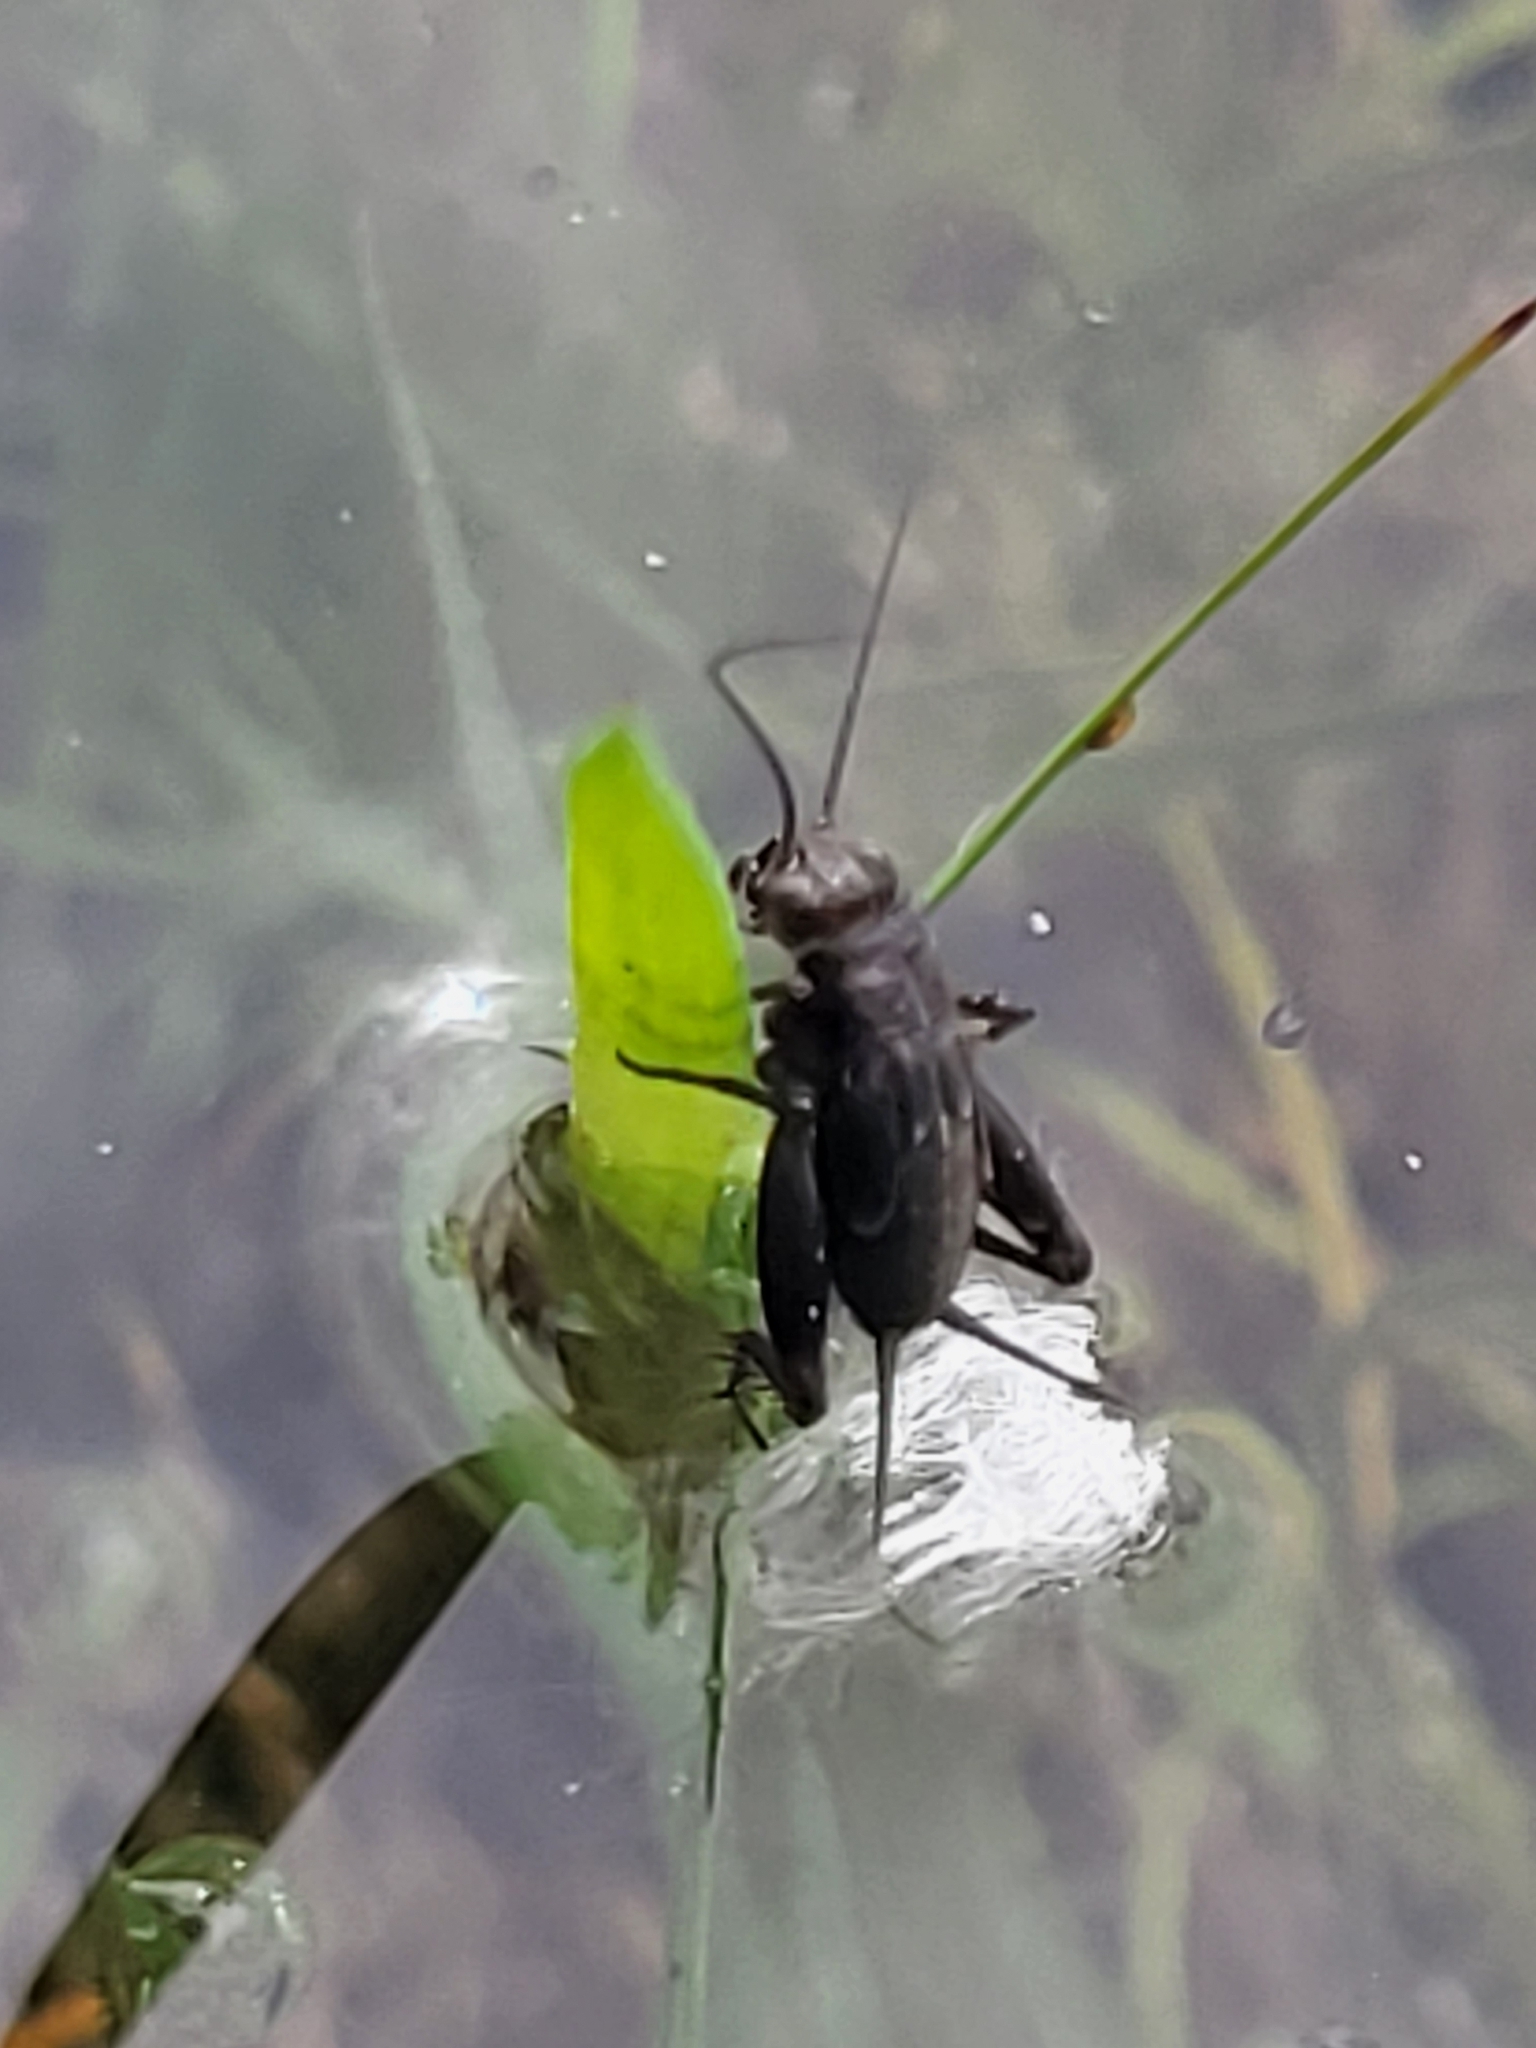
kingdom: Animalia
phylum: Arthropoda
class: Insecta
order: Orthoptera
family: Trigonidiidae
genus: Pteronemobius
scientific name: Pteronemobius heydenii
